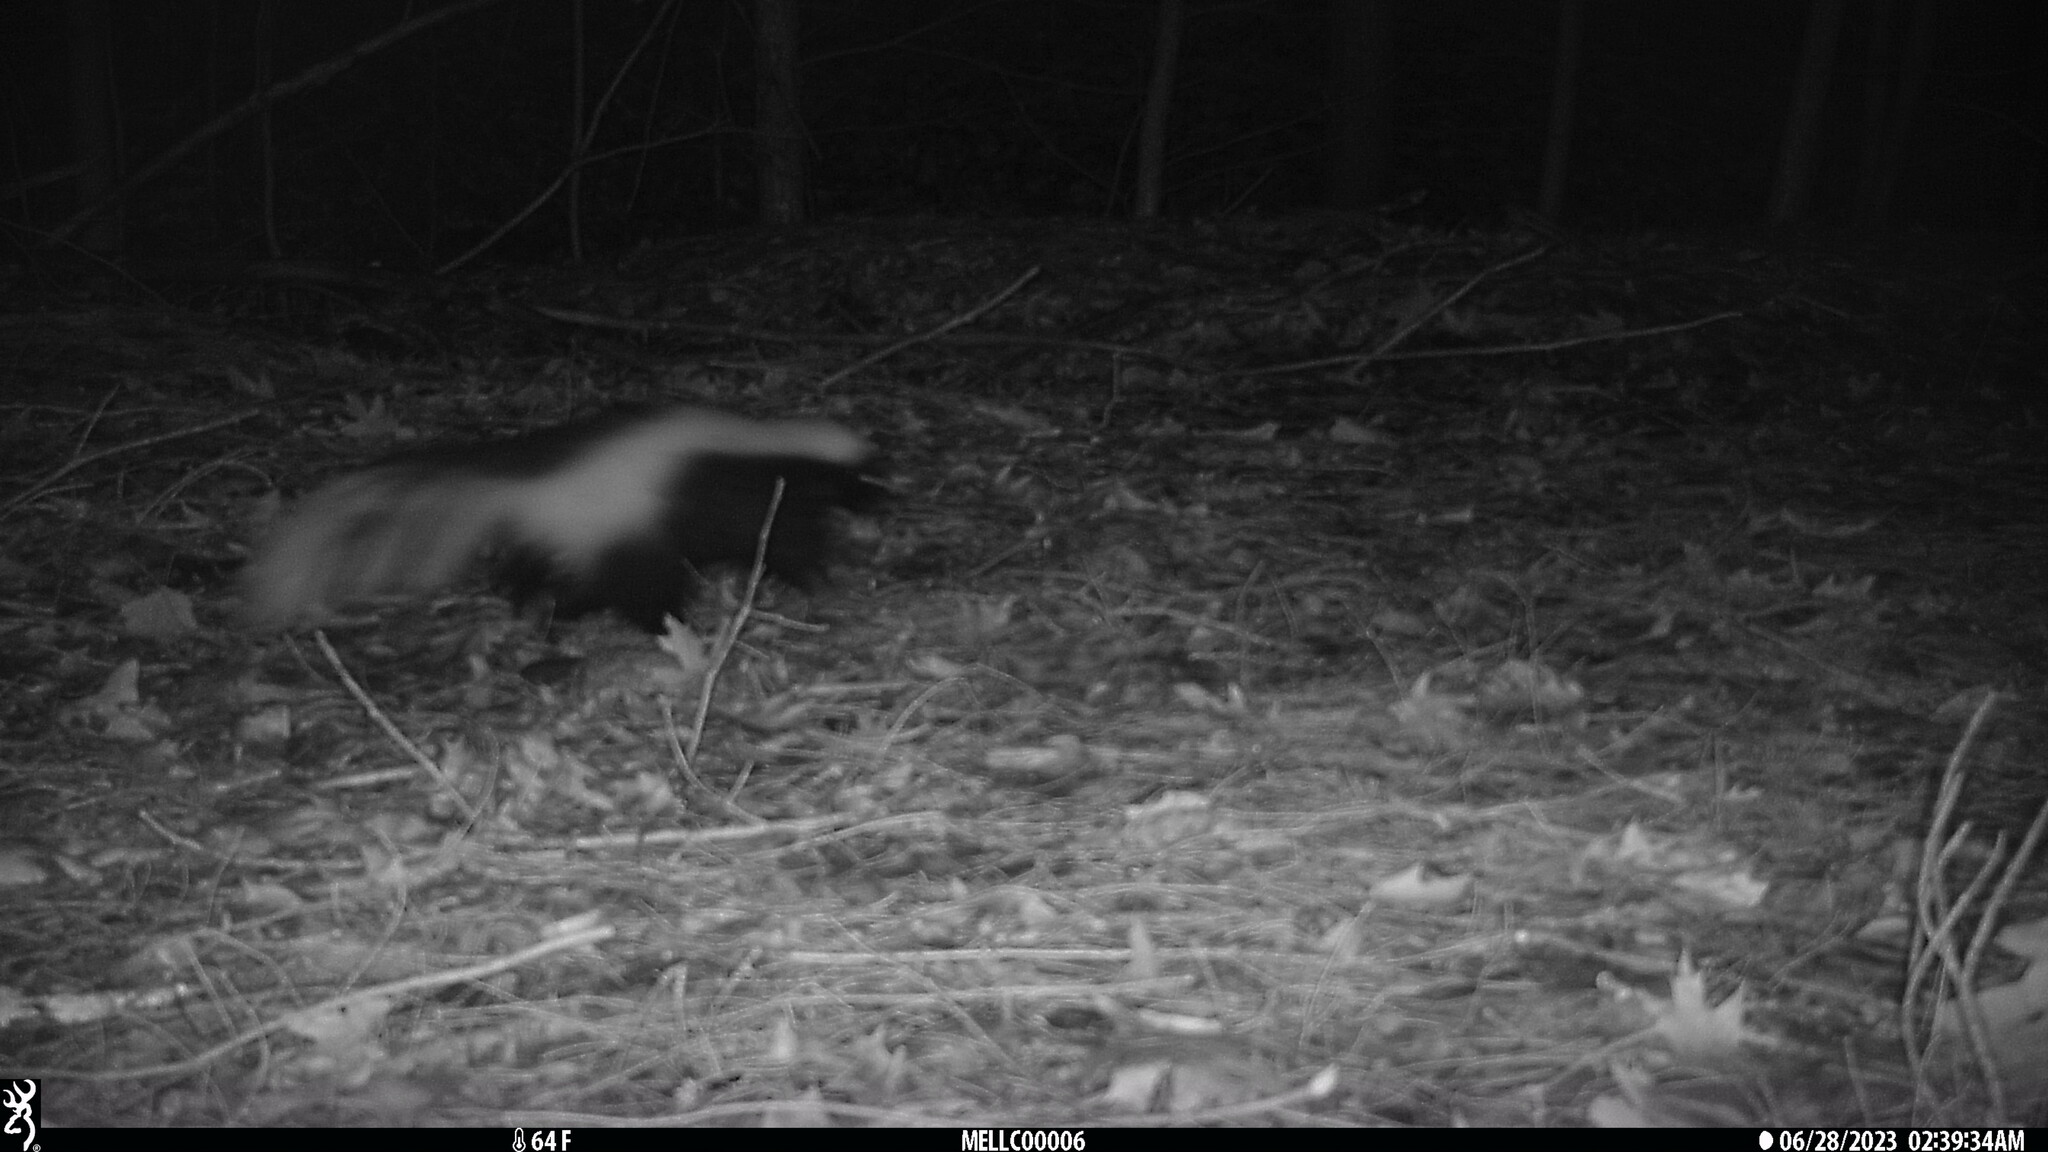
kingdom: Animalia
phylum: Chordata
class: Mammalia
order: Carnivora
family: Mephitidae
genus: Mephitis
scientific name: Mephitis mephitis
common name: Striped skunk
